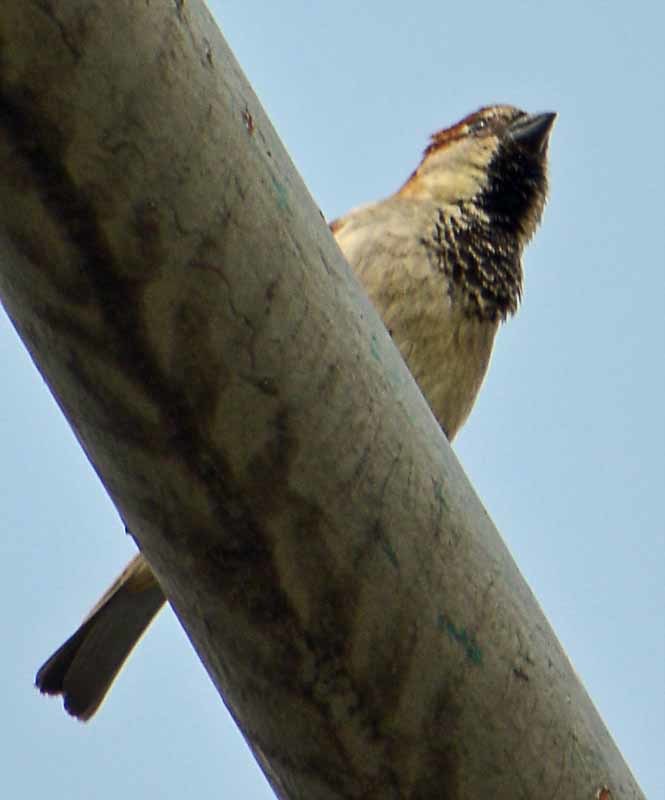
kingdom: Animalia
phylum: Chordata
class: Aves
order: Passeriformes
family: Passeridae
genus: Passer
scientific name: Passer domesticus
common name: House sparrow
